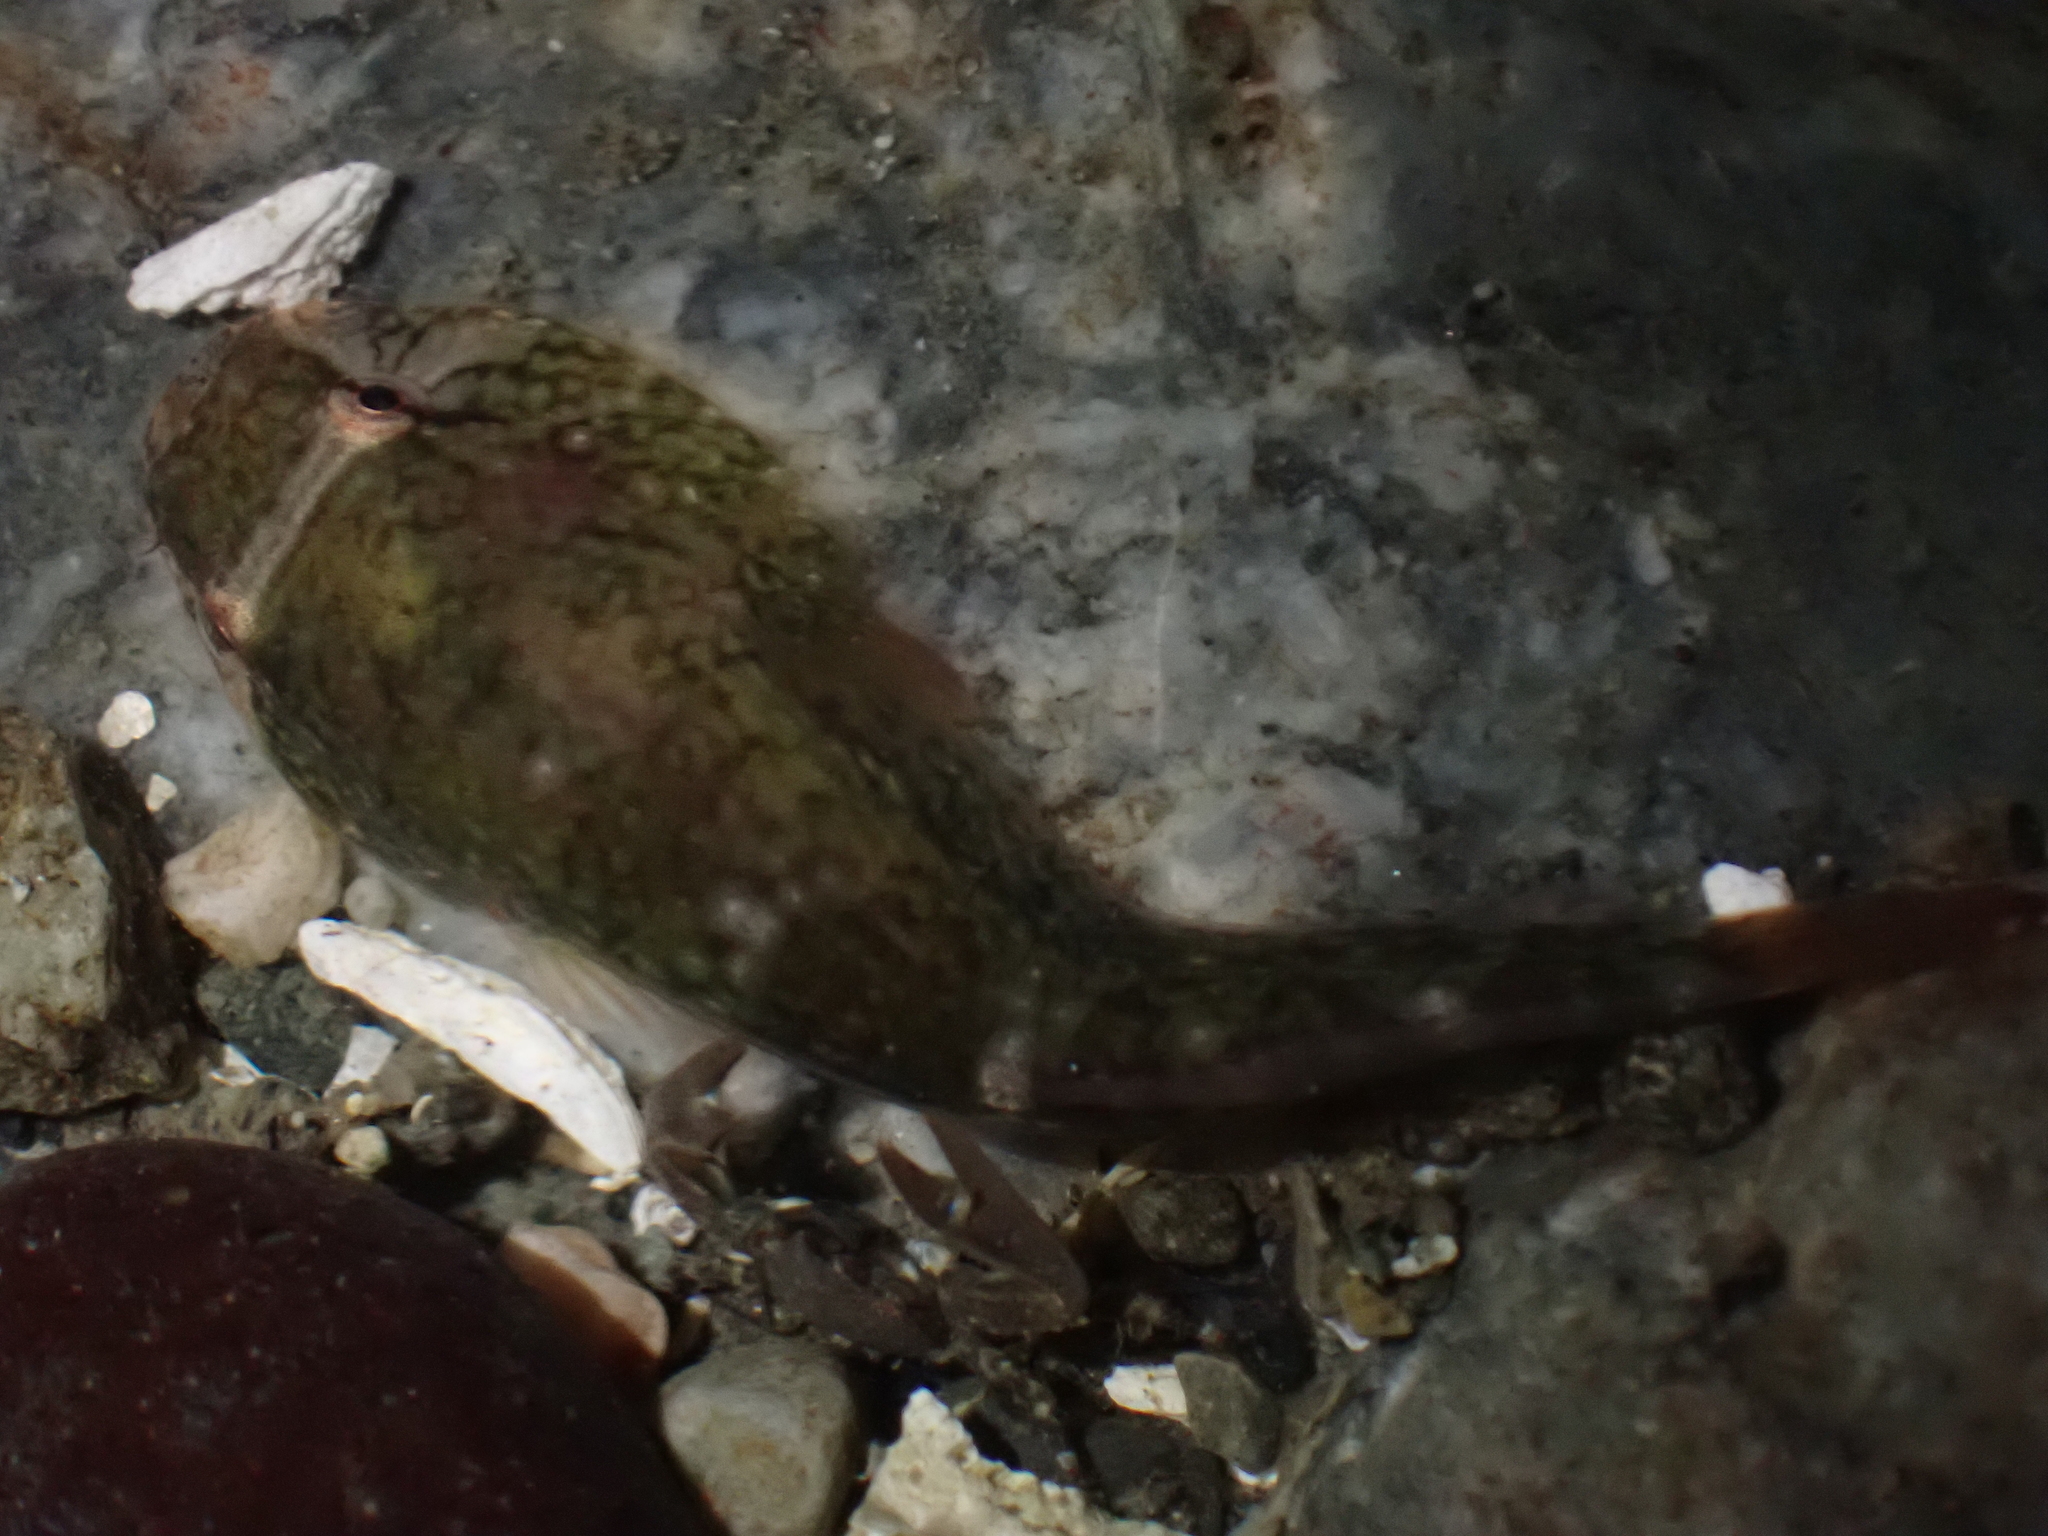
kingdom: Animalia
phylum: Chordata
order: Gobiesociformes
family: Gobiesocidae
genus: Gobiesox
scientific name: Gobiesox maeandricus
